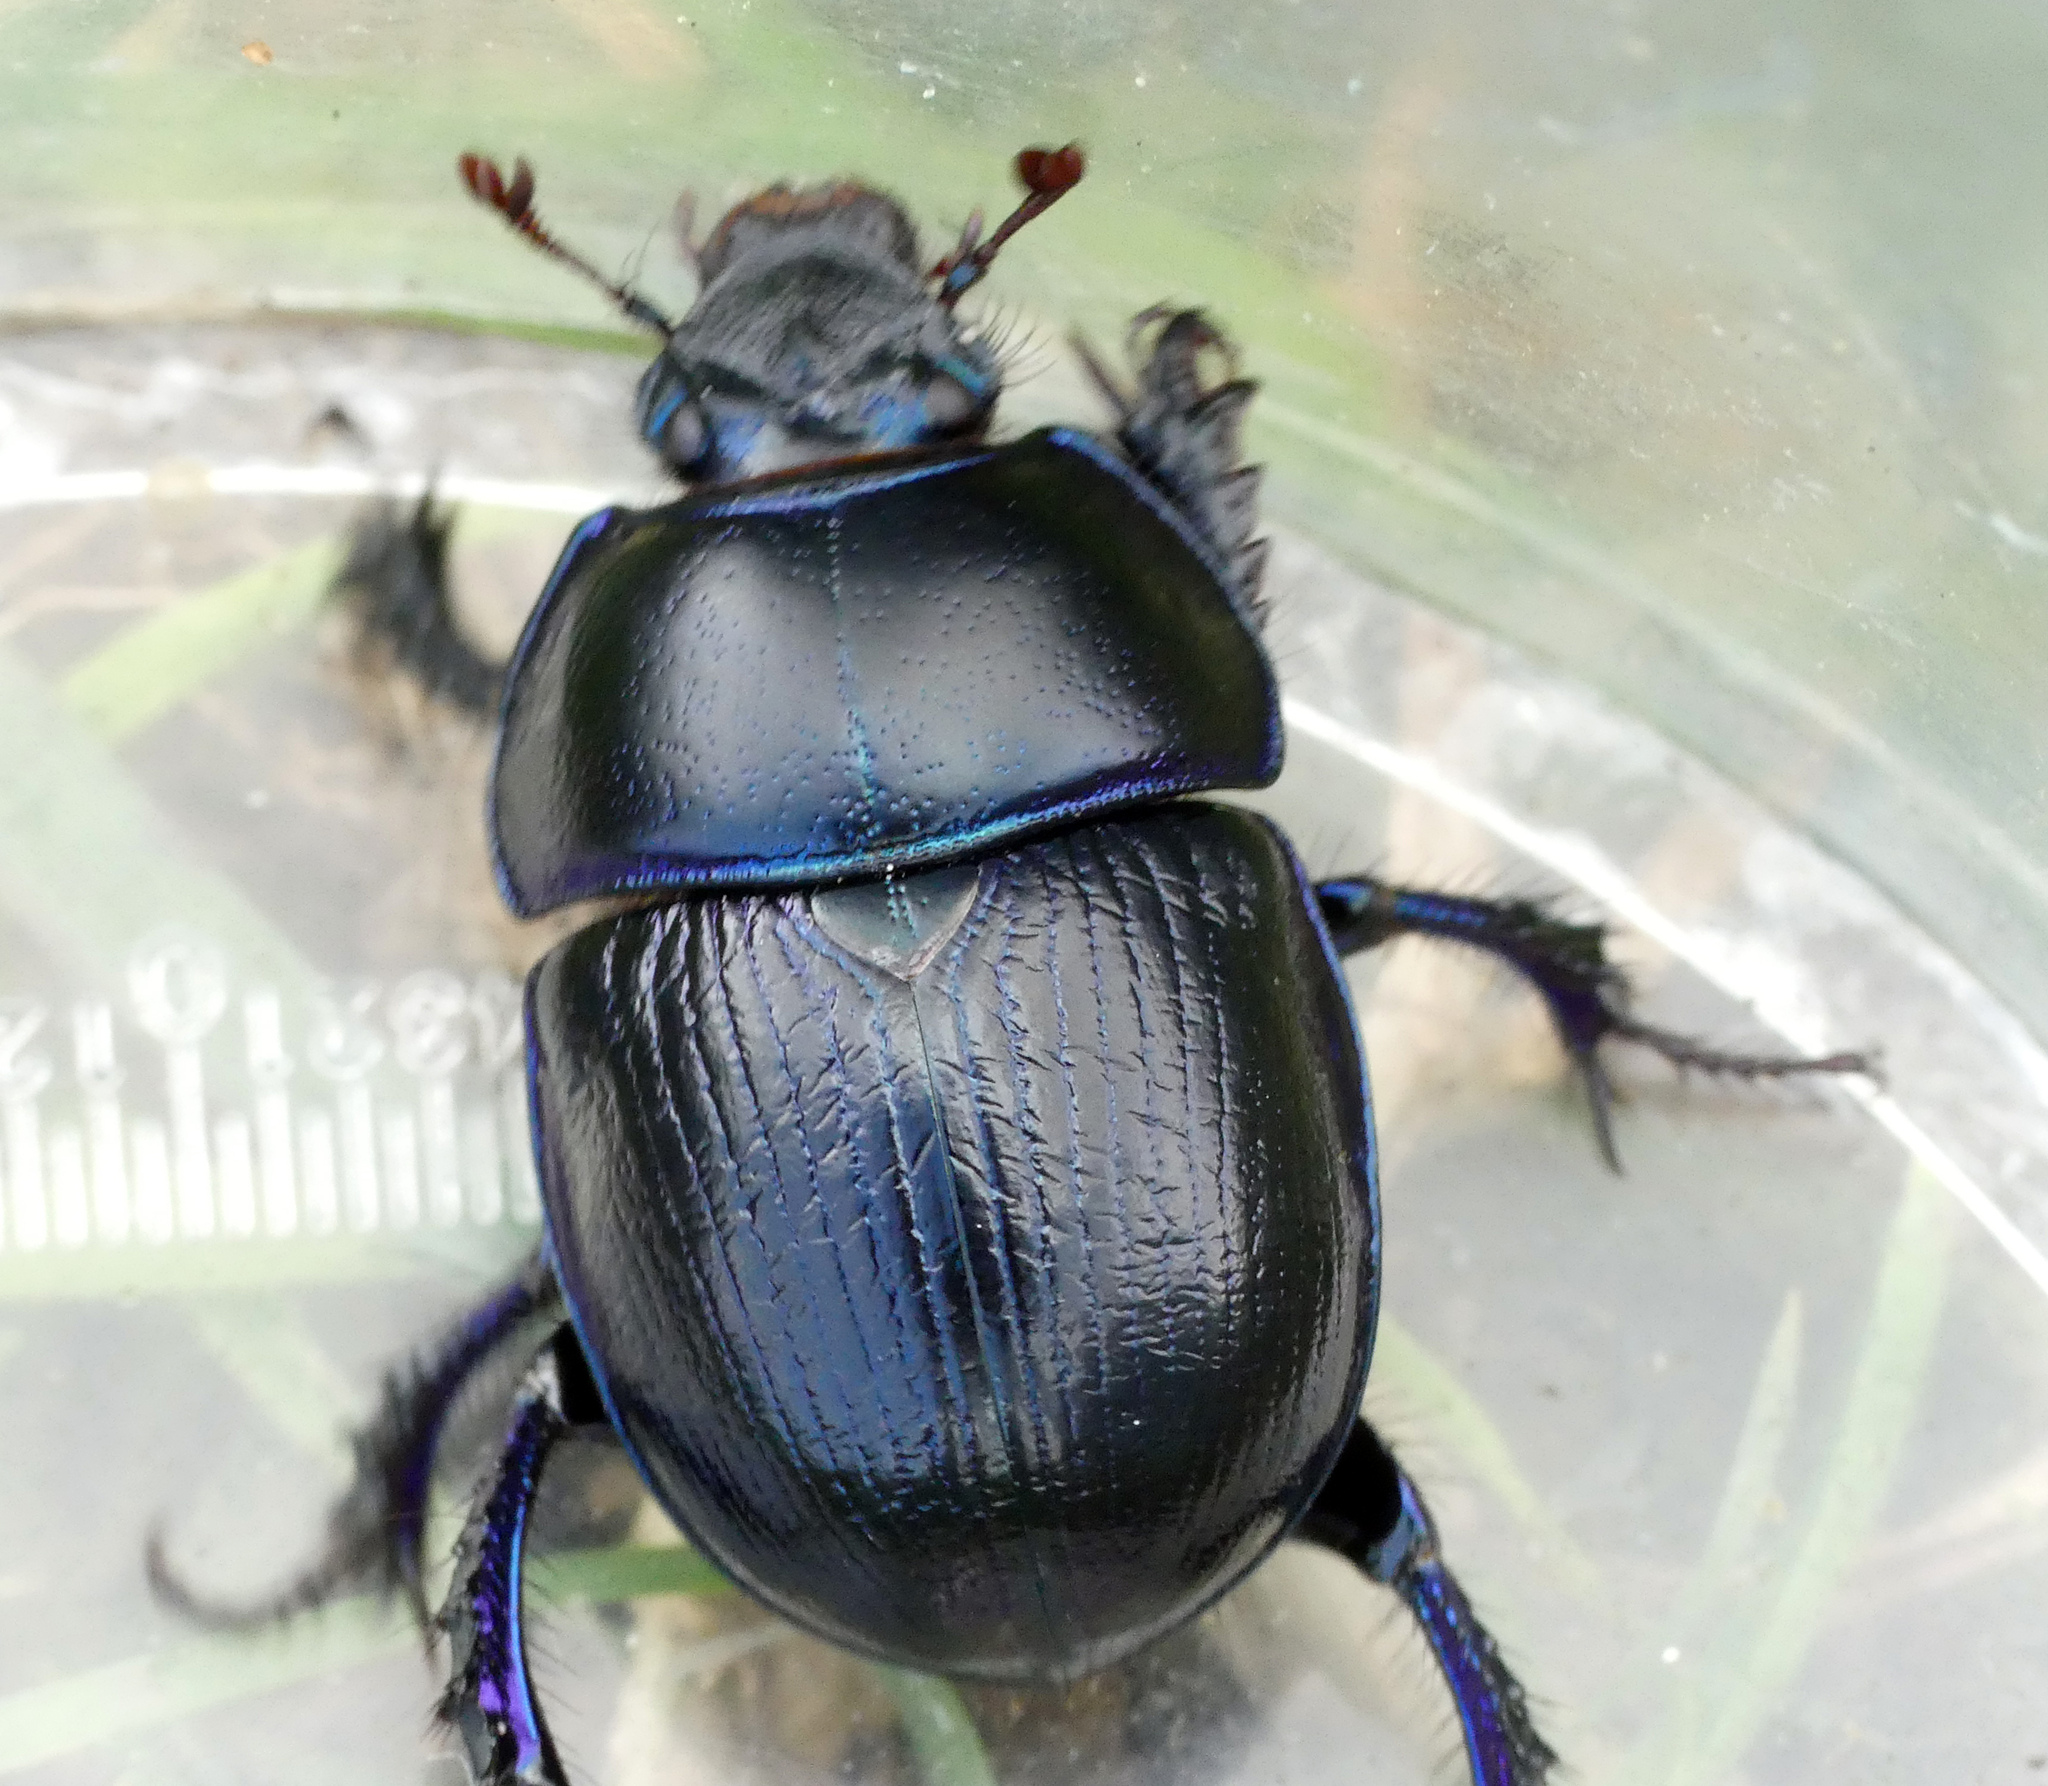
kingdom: Animalia
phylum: Arthropoda
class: Insecta
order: Coleoptera
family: Geotrupidae
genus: Anoplotrupes
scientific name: Anoplotrupes stercorosus
